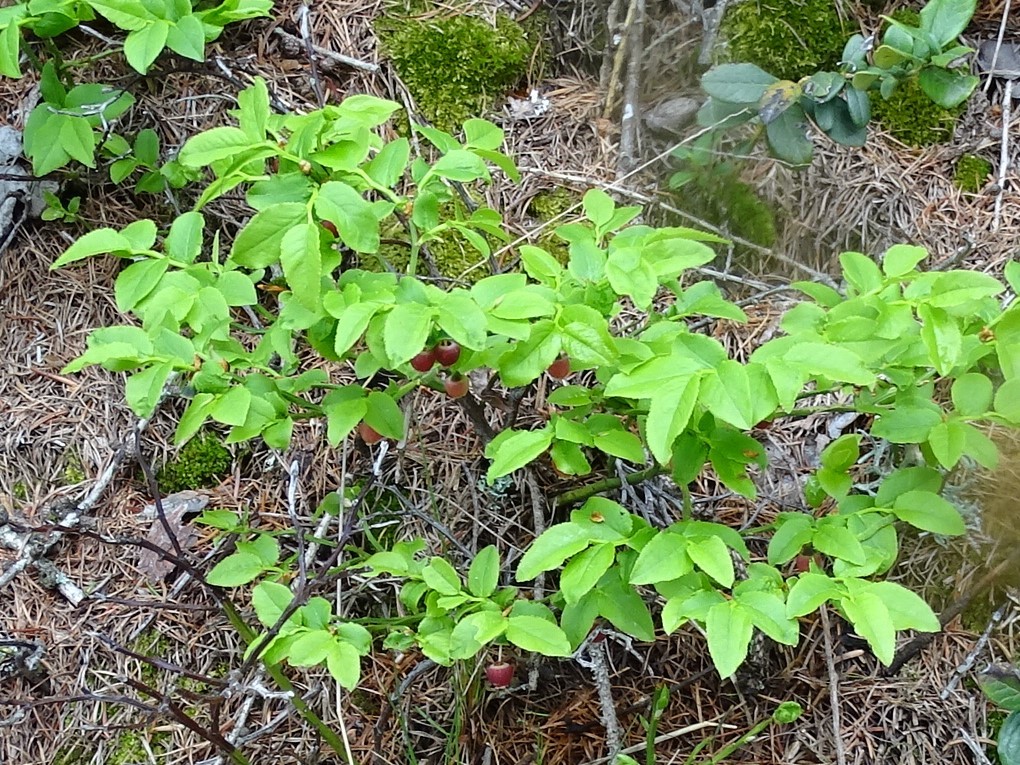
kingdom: Plantae
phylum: Tracheophyta
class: Magnoliopsida
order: Ericales
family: Ericaceae
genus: Vaccinium
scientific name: Vaccinium myrtillus
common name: Bilberry
